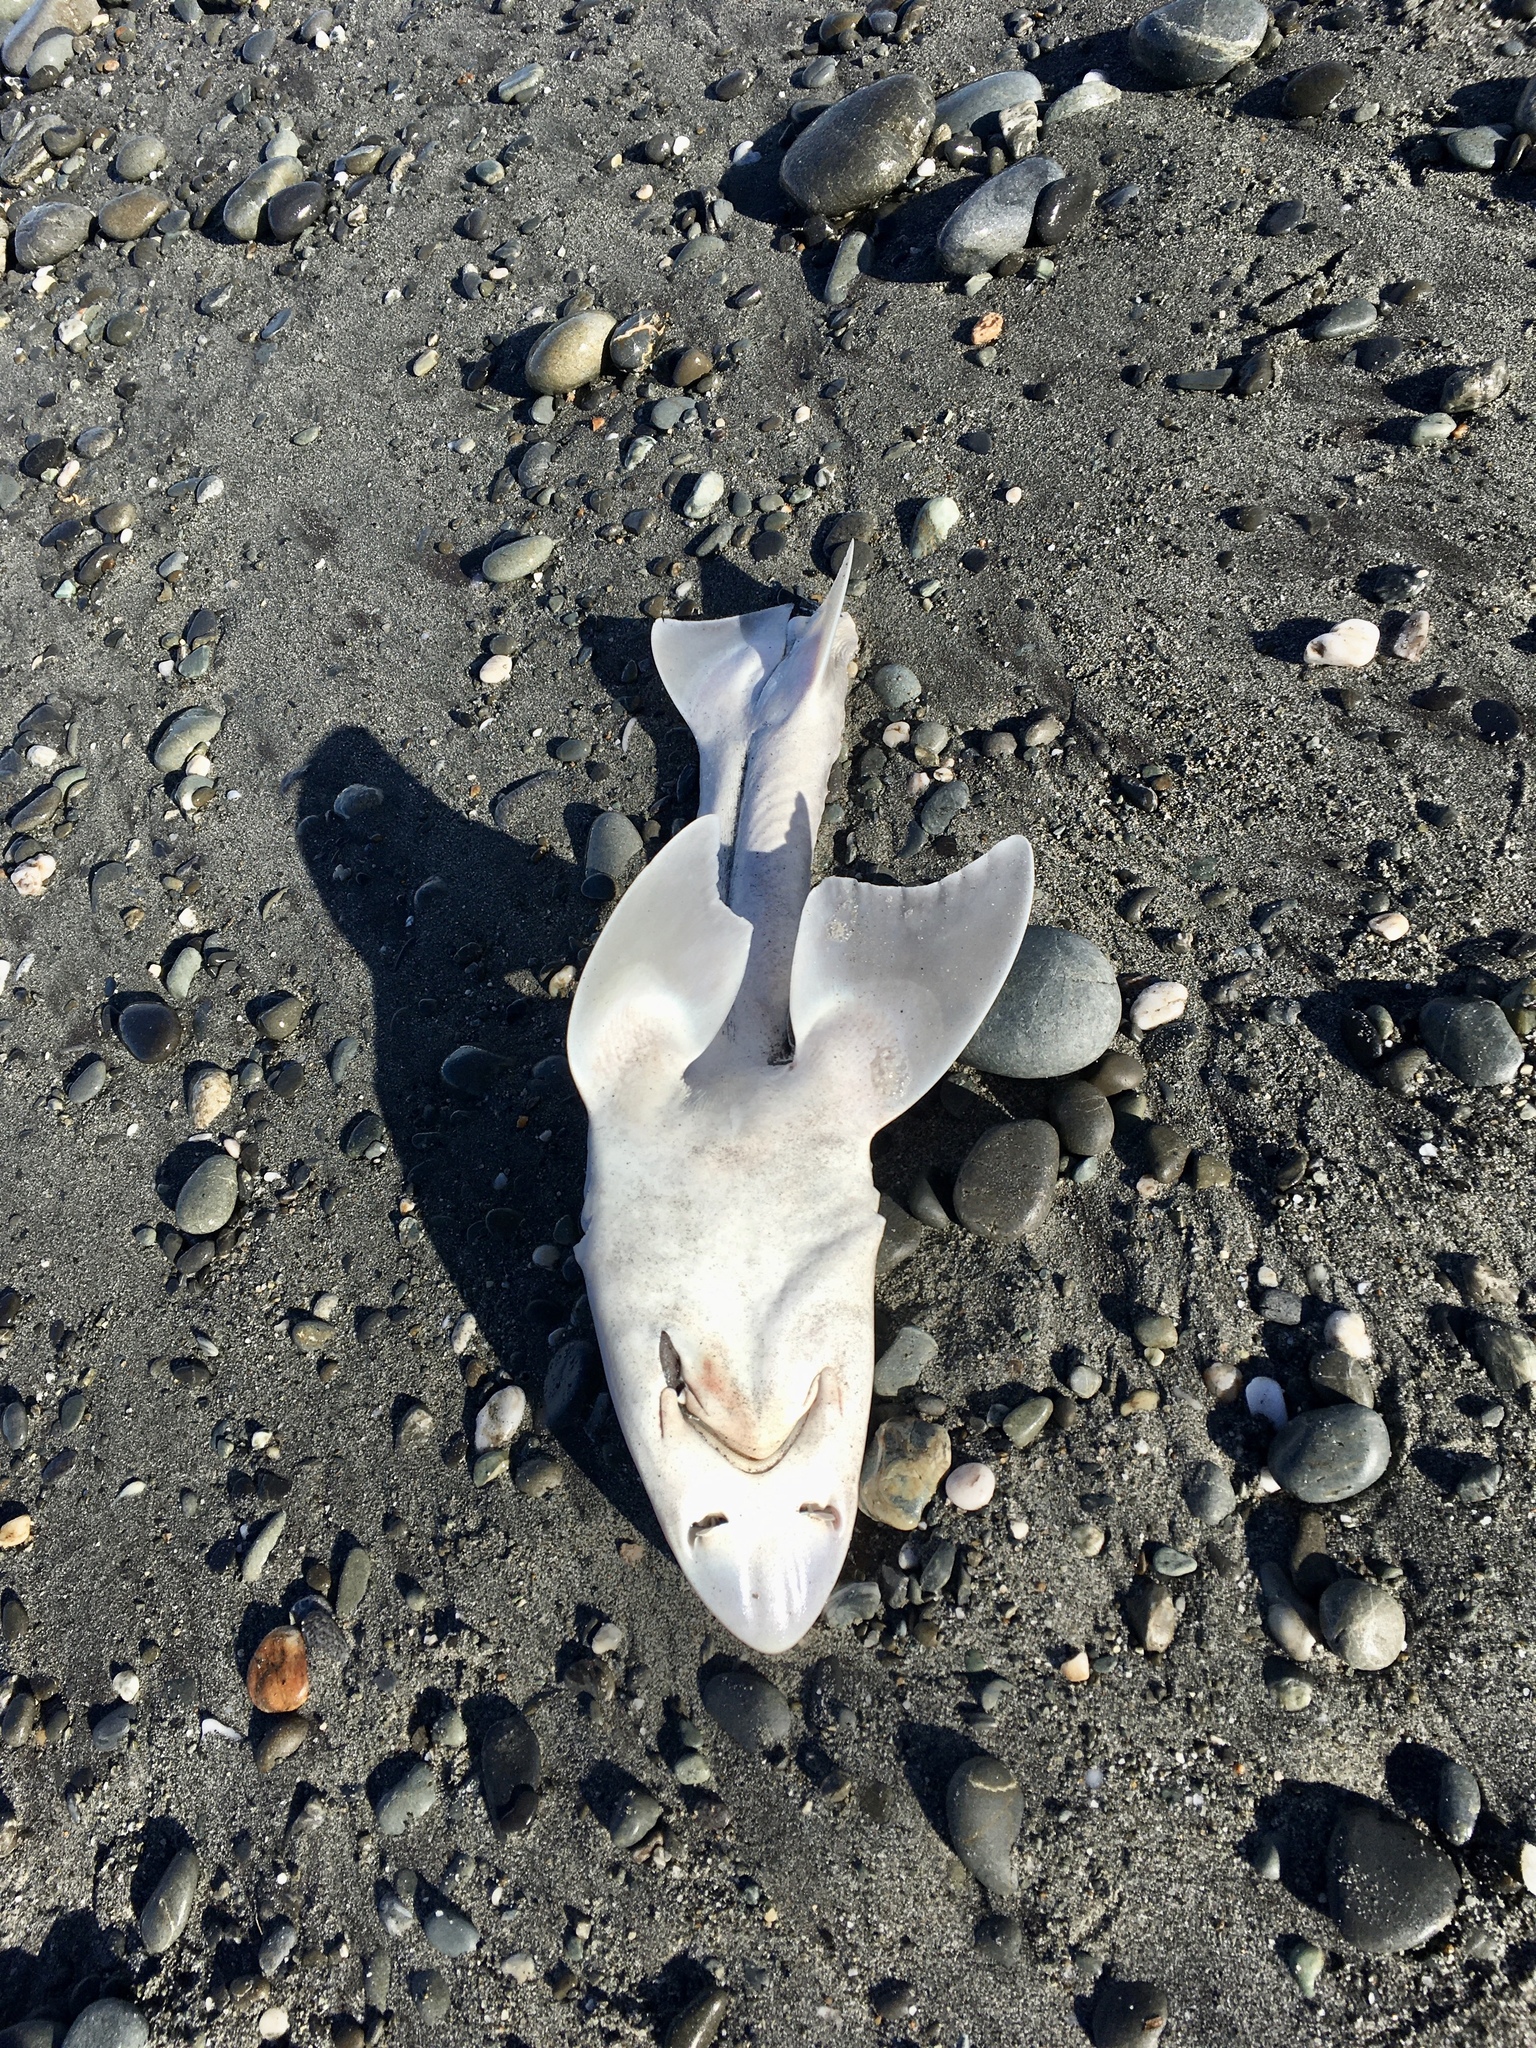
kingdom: Animalia
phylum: Chordata
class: Elasmobranchii
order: Carcharhiniformes
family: Triakidae
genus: Mustelus
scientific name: Mustelus lenticulatus
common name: Gummy shark
